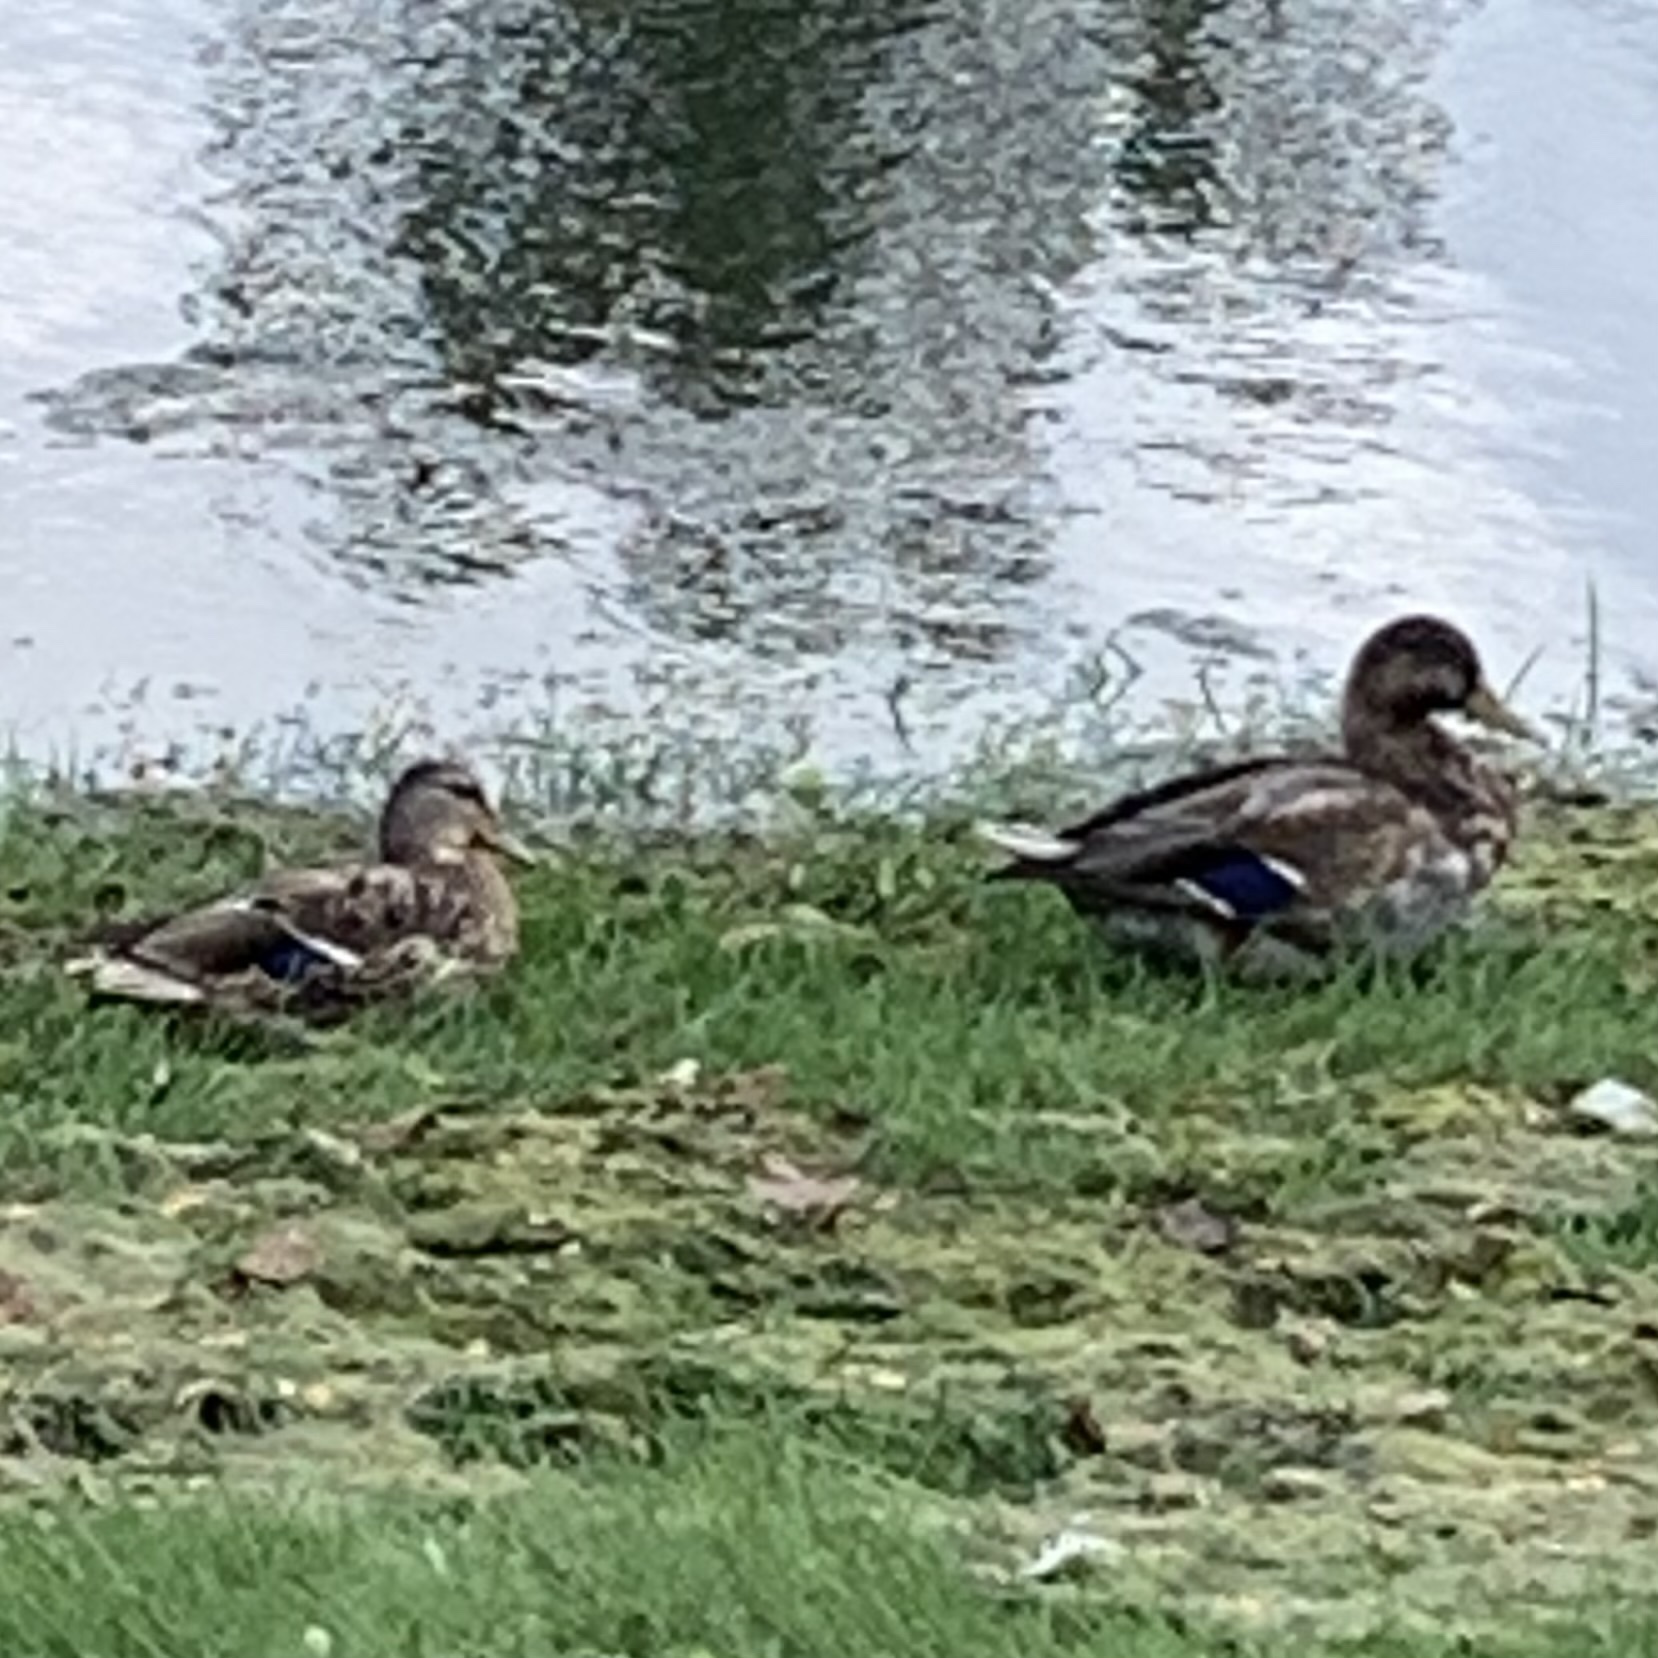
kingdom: Animalia
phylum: Chordata
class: Aves
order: Anseriformes
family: Anatidae
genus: Anas
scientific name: Anas platyrhynchos
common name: Mallard
